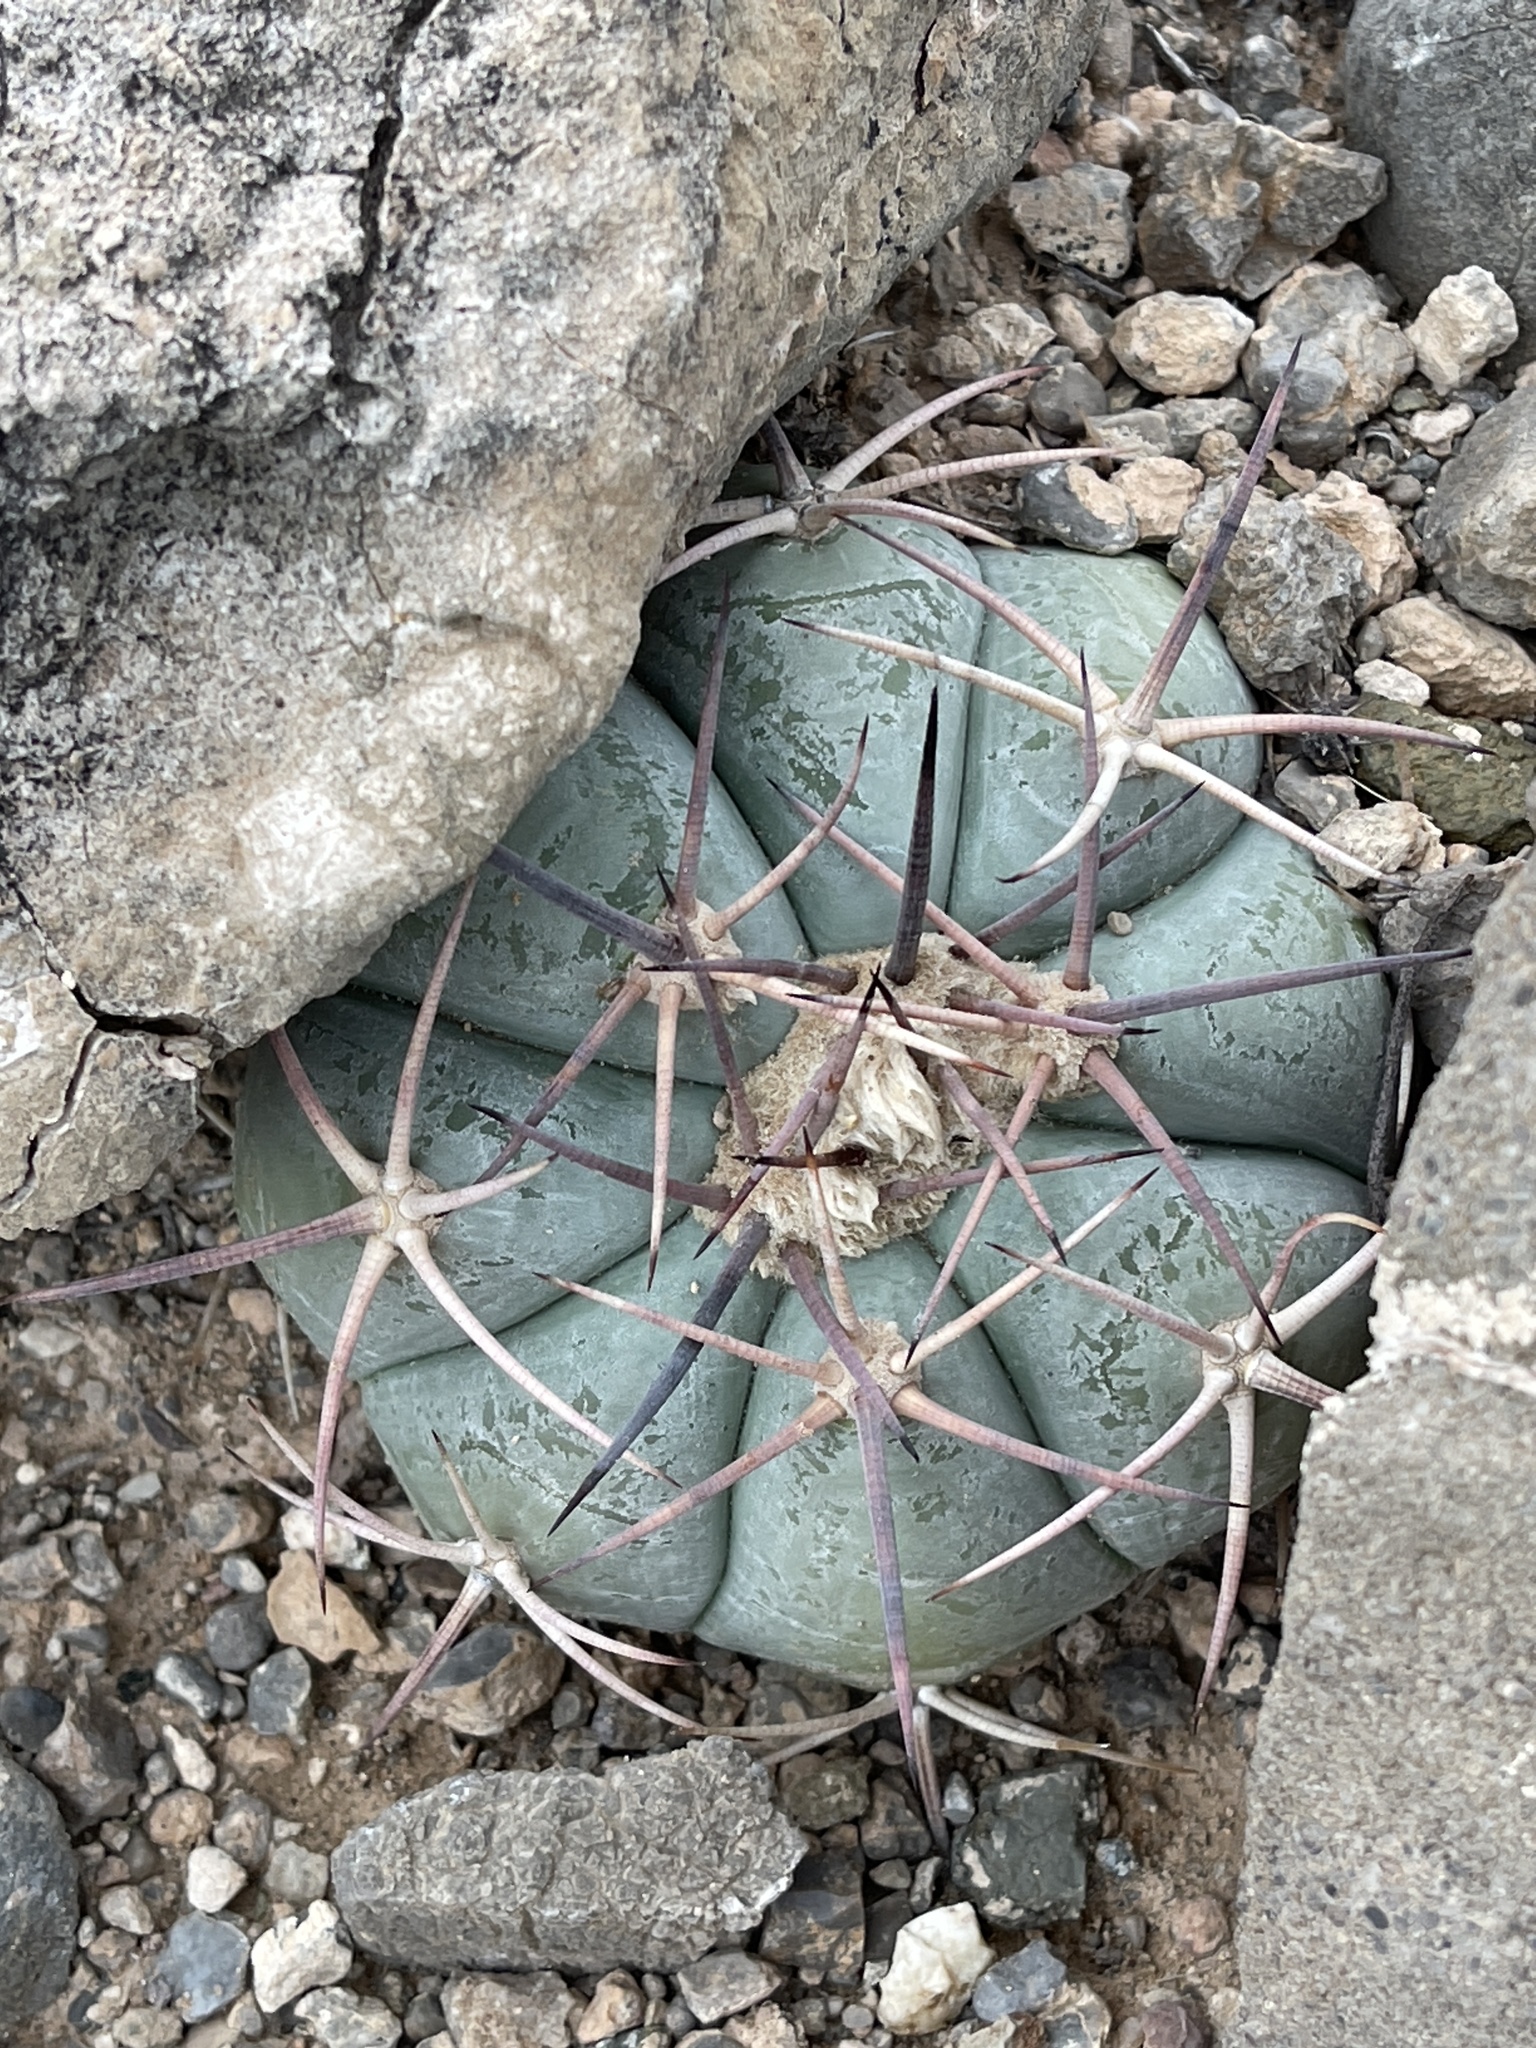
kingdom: Plantae
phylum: Tracheophyta
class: Magnoliopsida
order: Caryophyllales
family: Cactaceae
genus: Echinocactus
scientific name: Echinocactus horizonthalonius
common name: Devilshead
